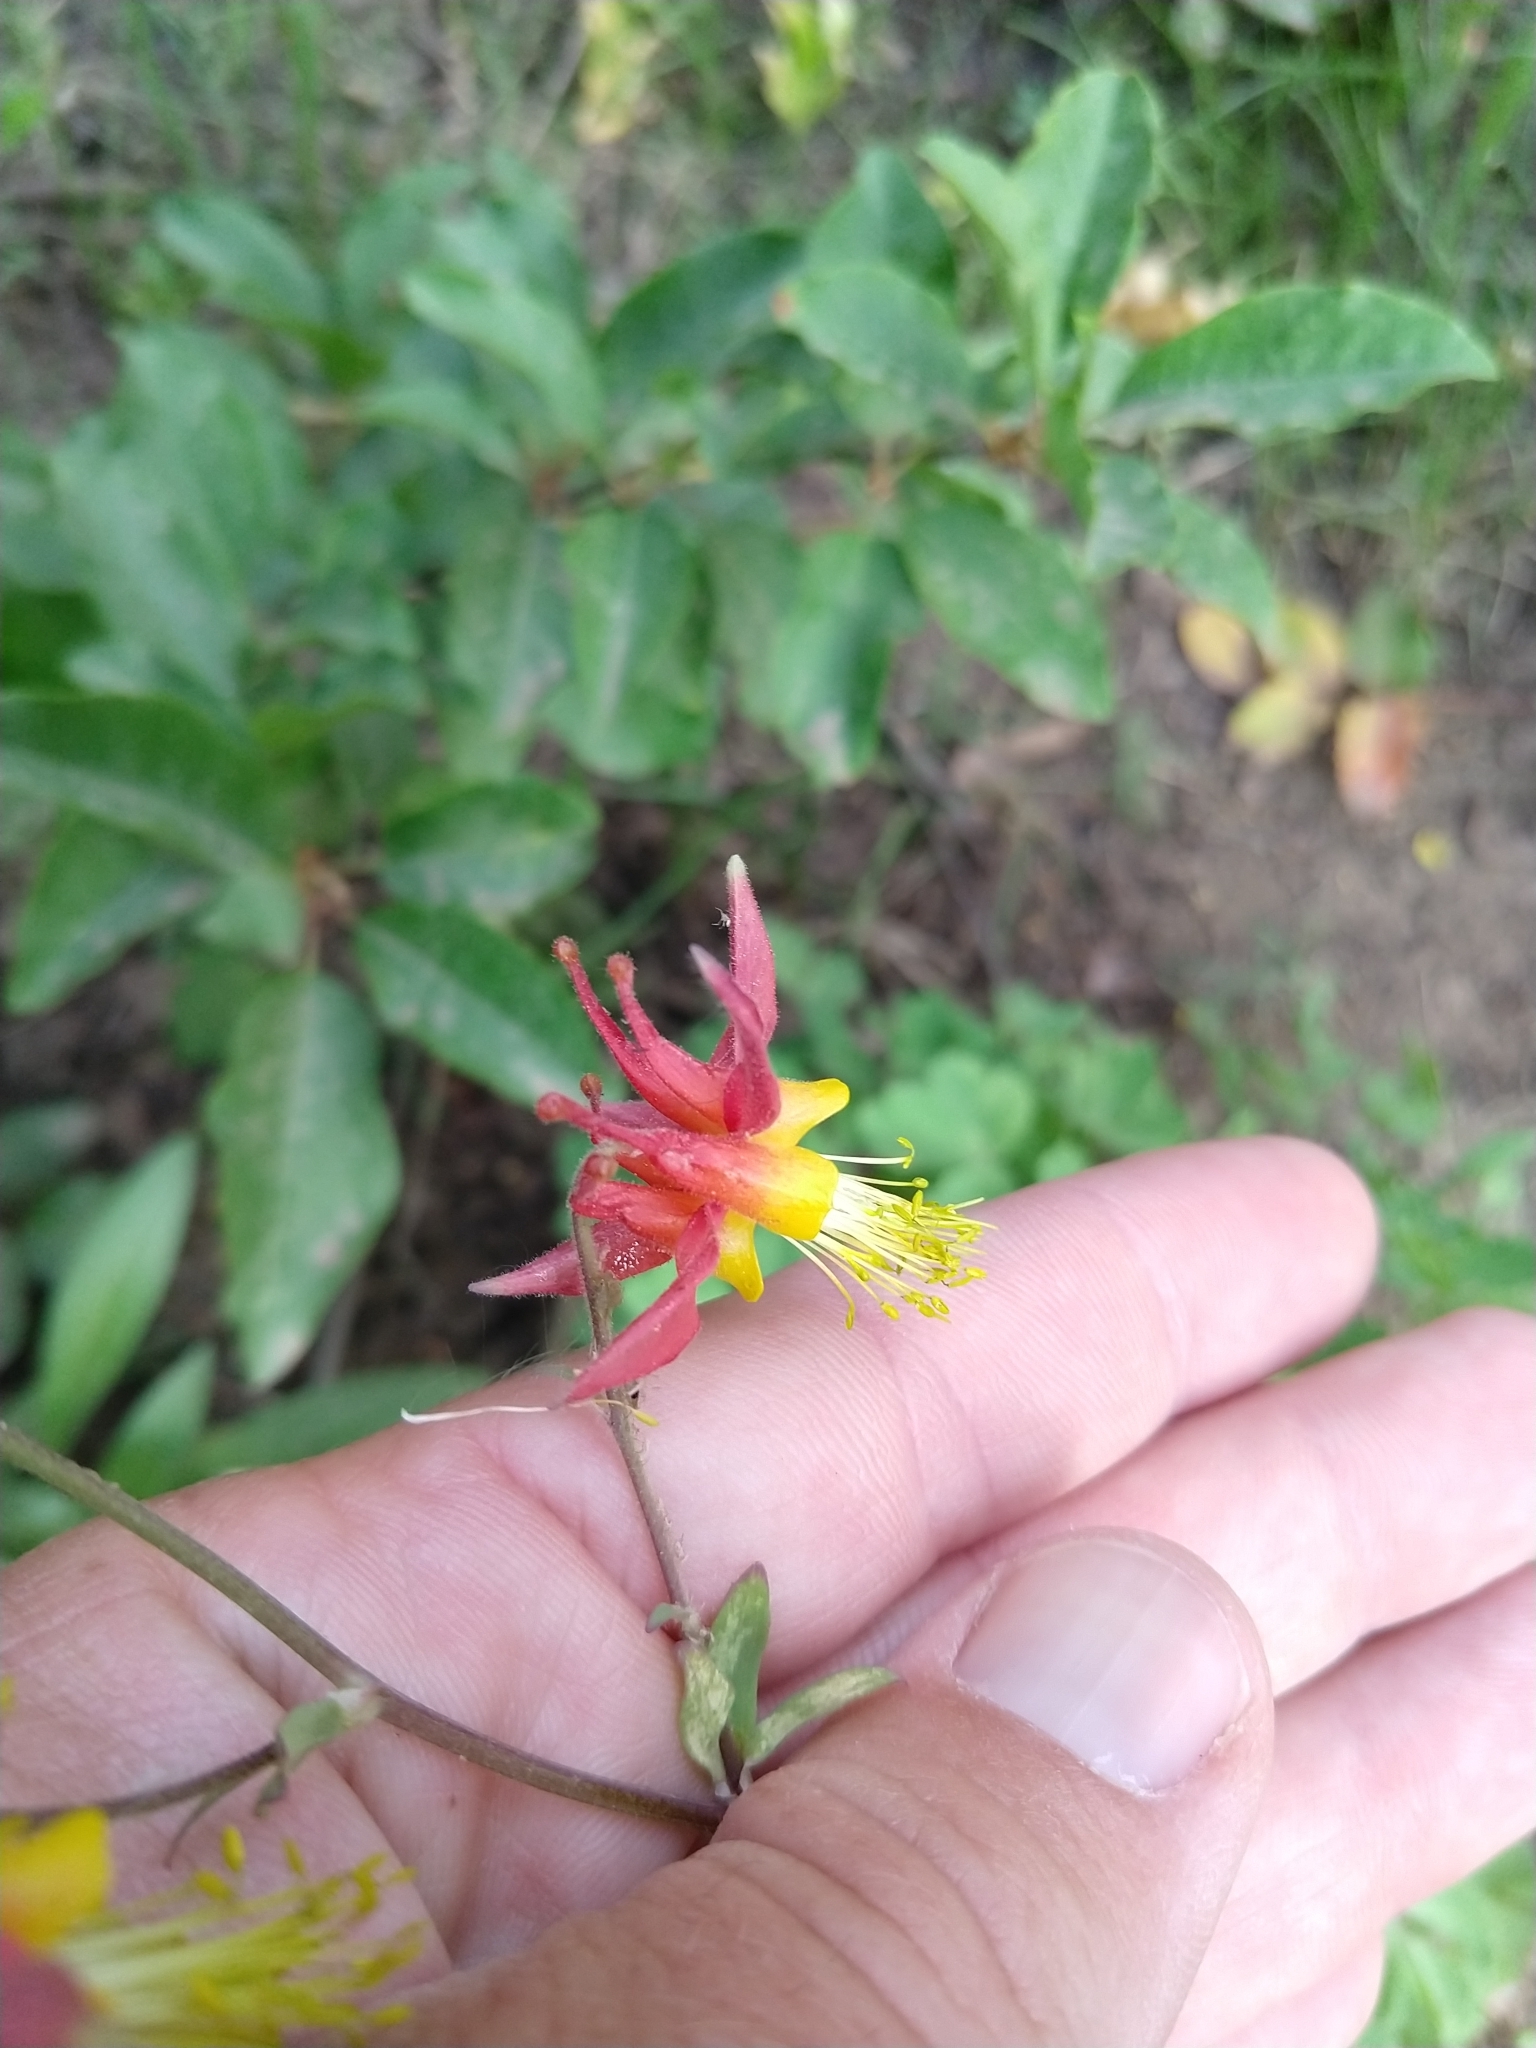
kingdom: Plantae
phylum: Tracheophyta
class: Magnoliopsida
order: Ranunculales
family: Ranunculaceae
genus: Aquilegia
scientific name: Aquilegia formosa
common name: Sitka columbine
